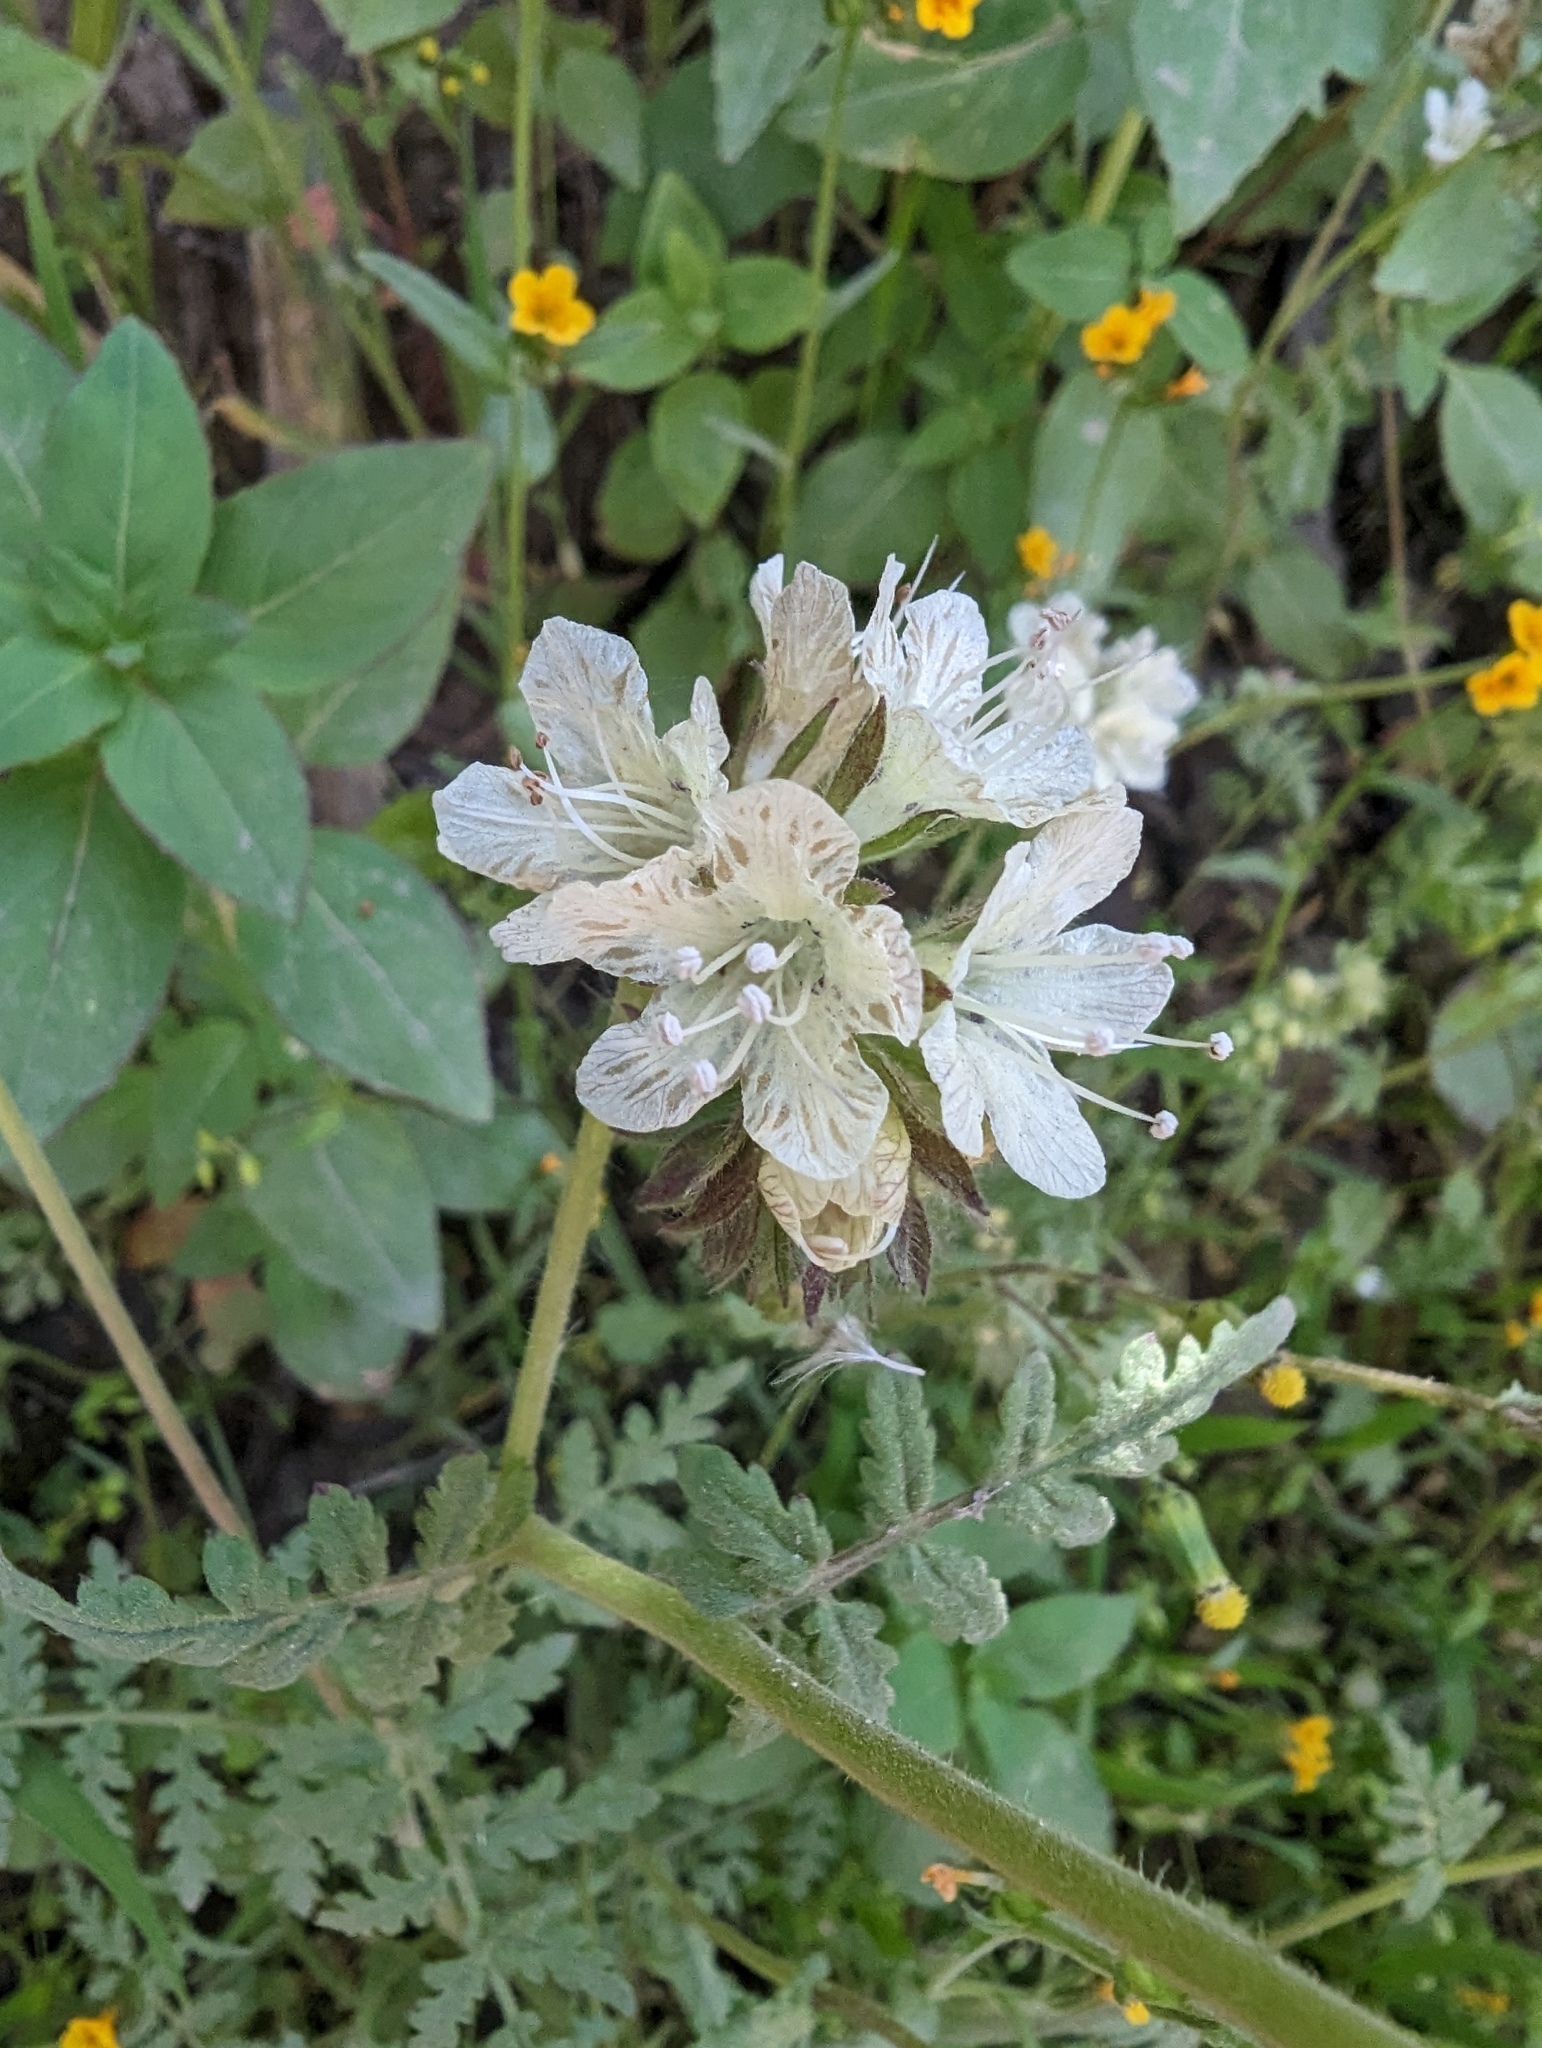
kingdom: Plantae
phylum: Tracheophyta
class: Magnoliopsida
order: Boraginales
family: Hydrophyllaceae
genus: Phacelia
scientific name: Phacelia distans
